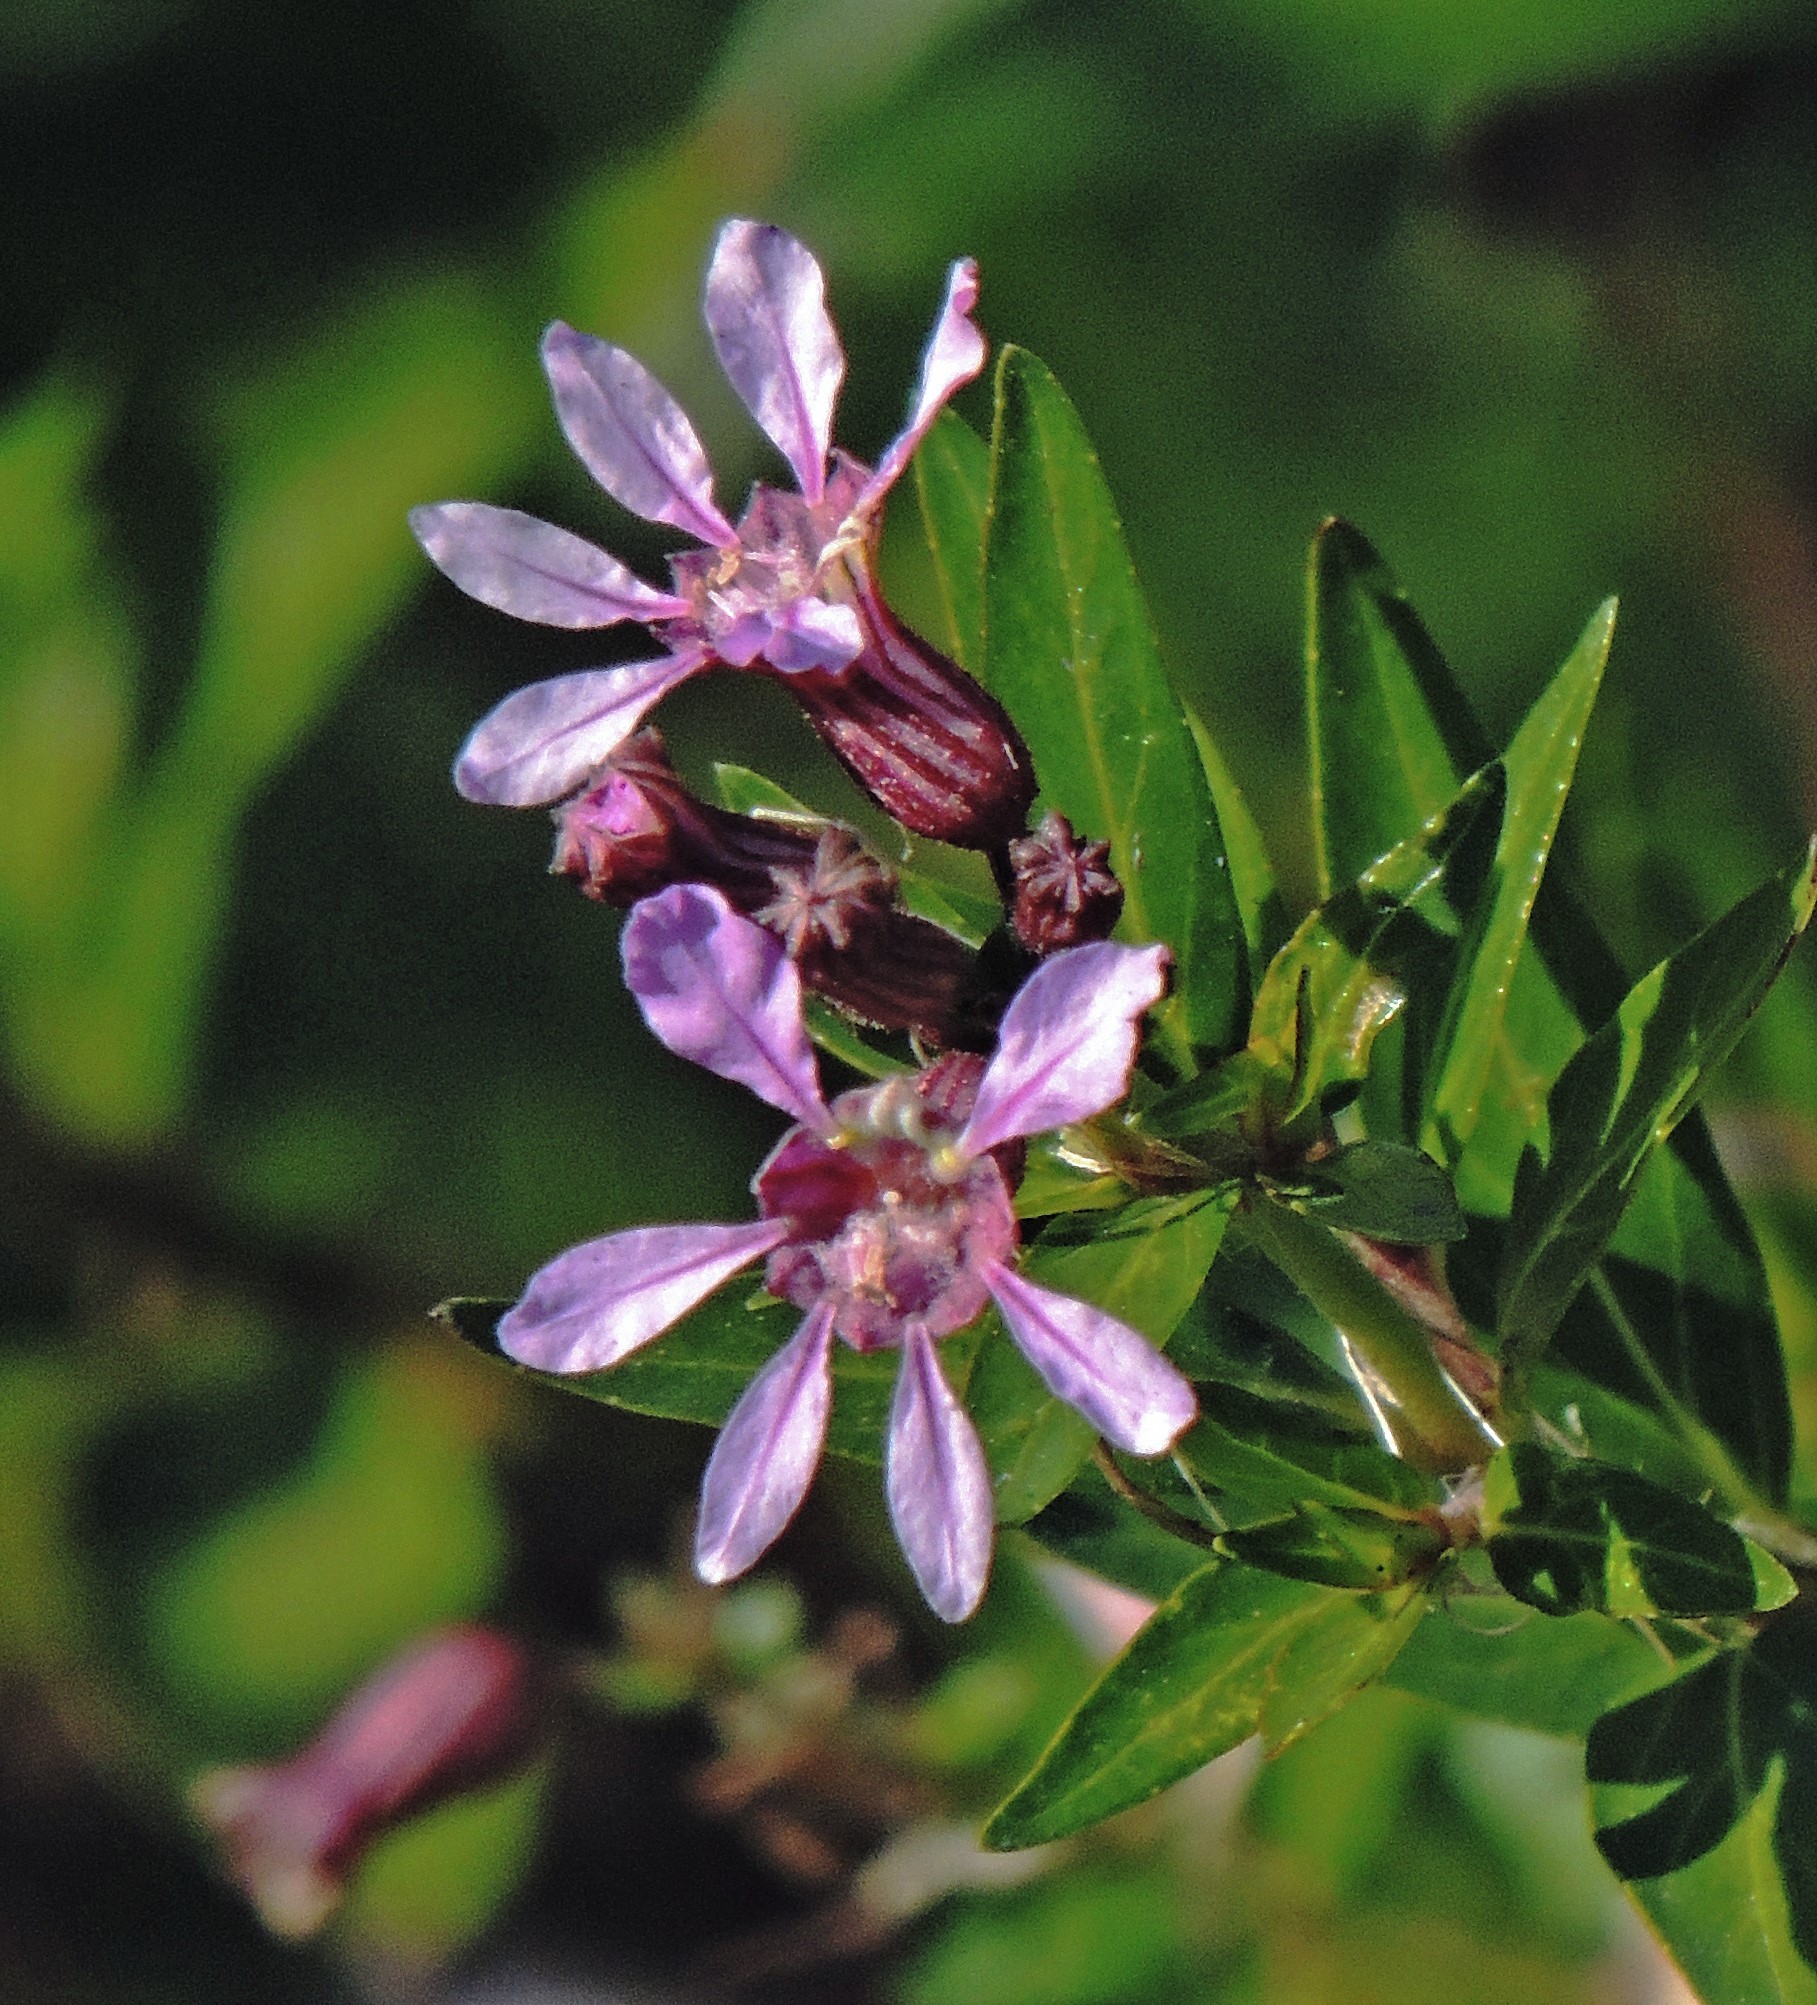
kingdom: Plantae
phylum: Tracheophyta
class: Magnoliopsida
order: Myrtales
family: Lythraceae
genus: Cuphea
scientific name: Cuphea fruticosa
